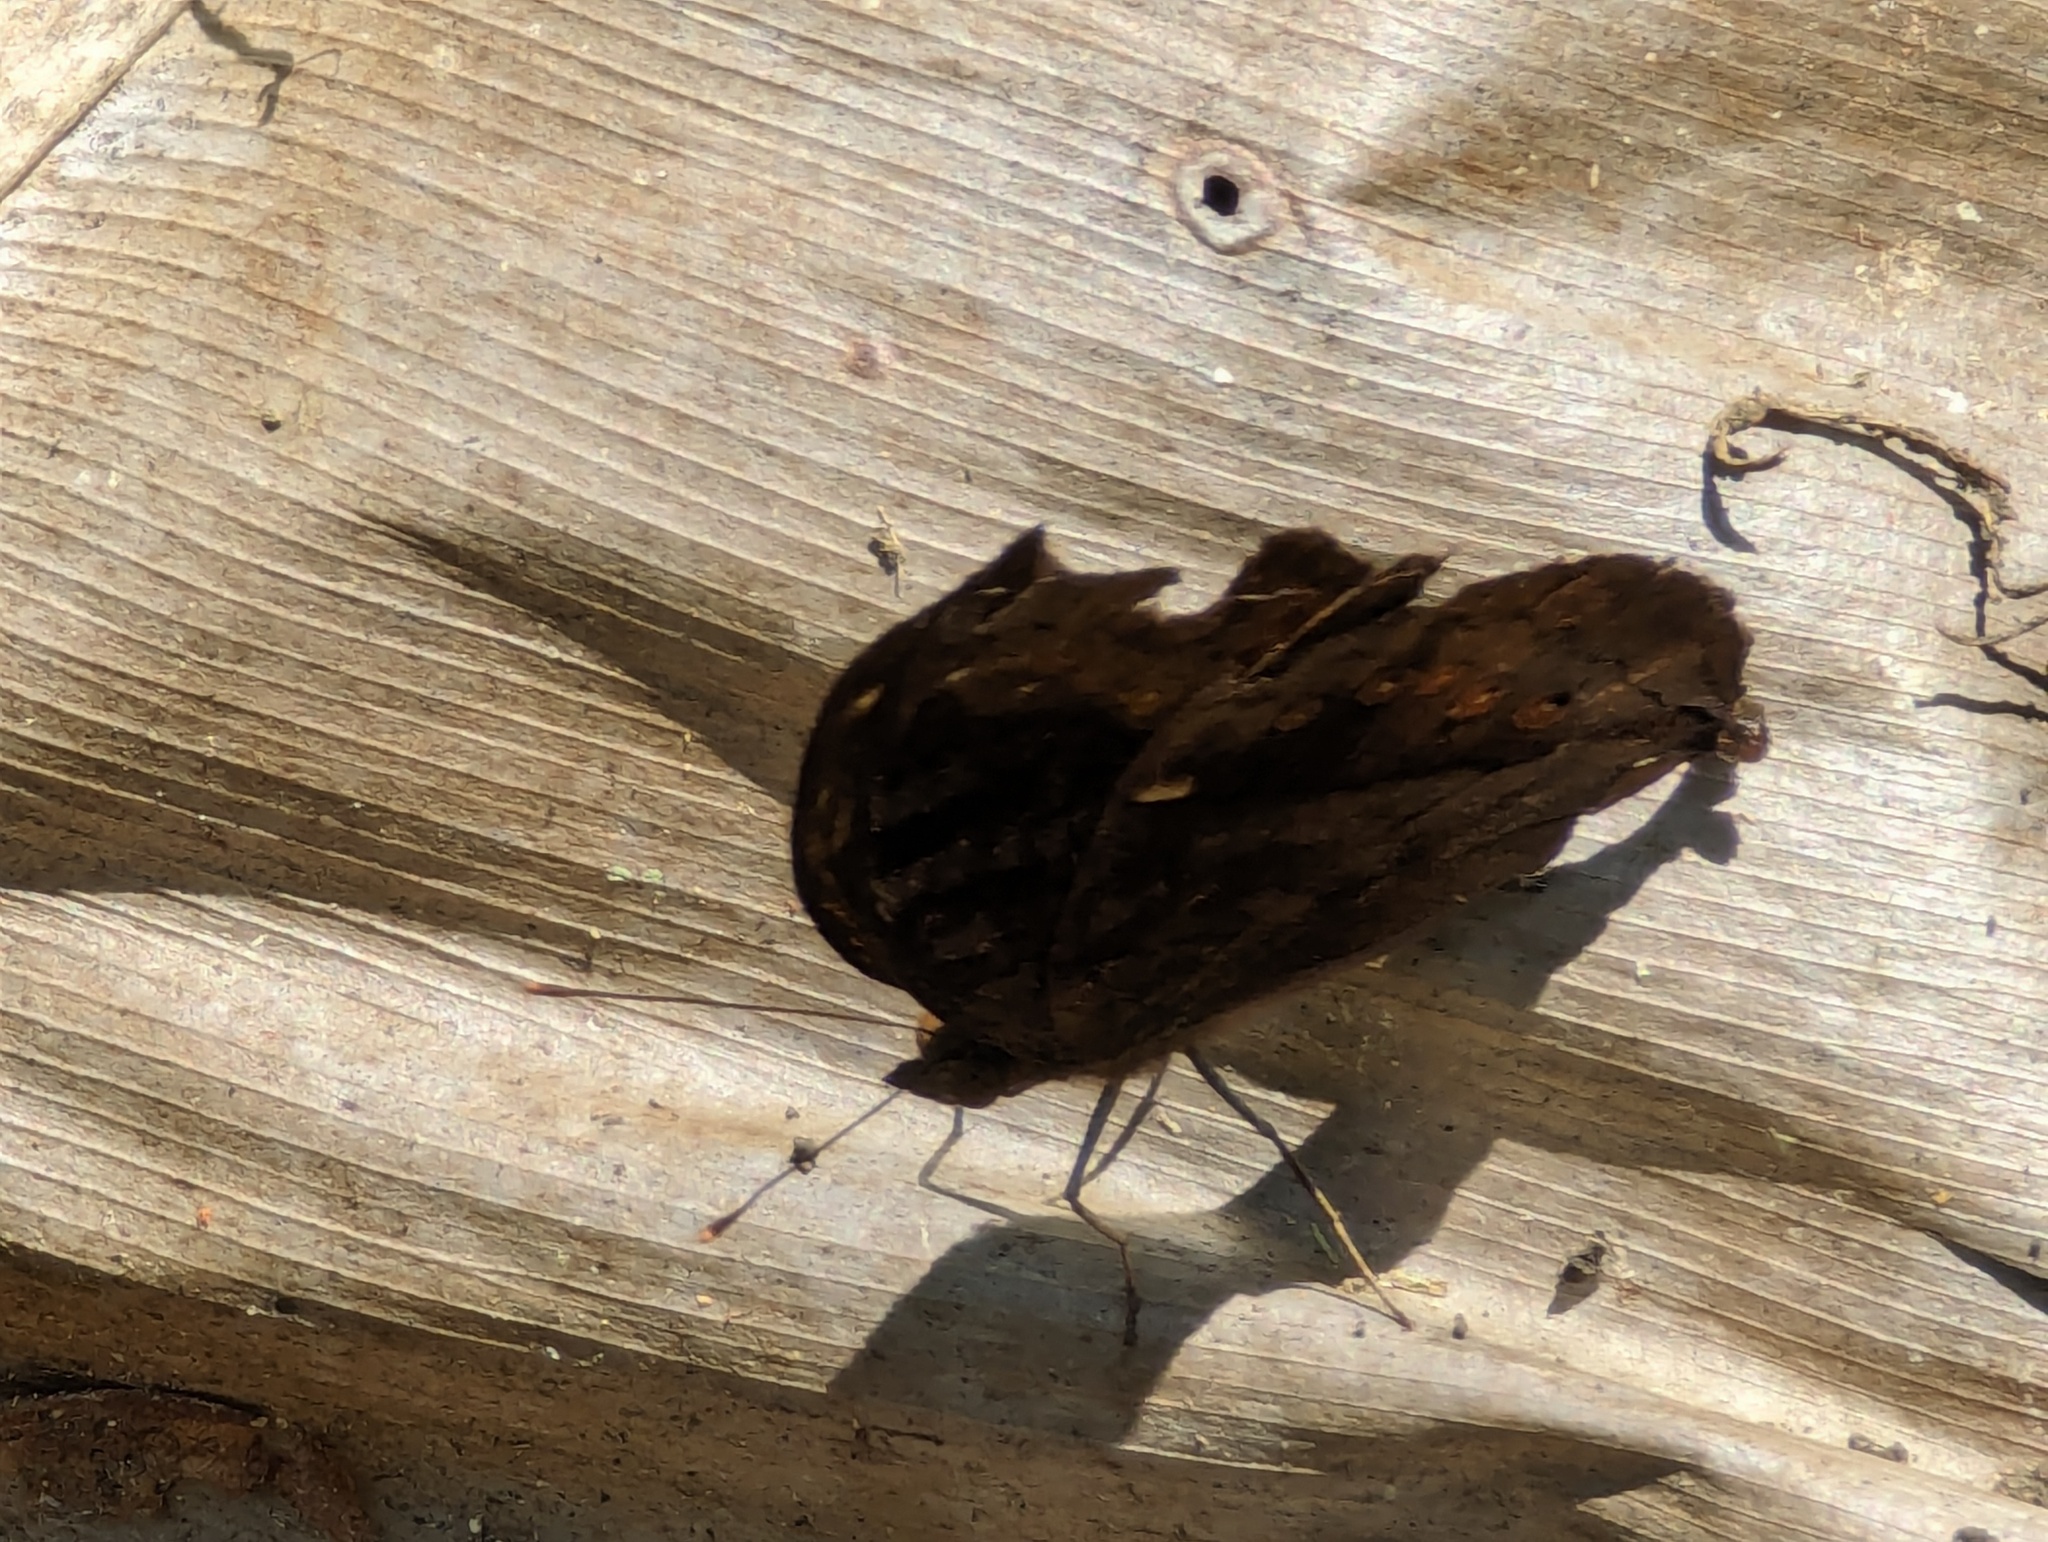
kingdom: Animalia
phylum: Arthropoda
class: Insecta
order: Lepidoptera
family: Nymphalidae
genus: Junonia
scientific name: Junonia hedonia
